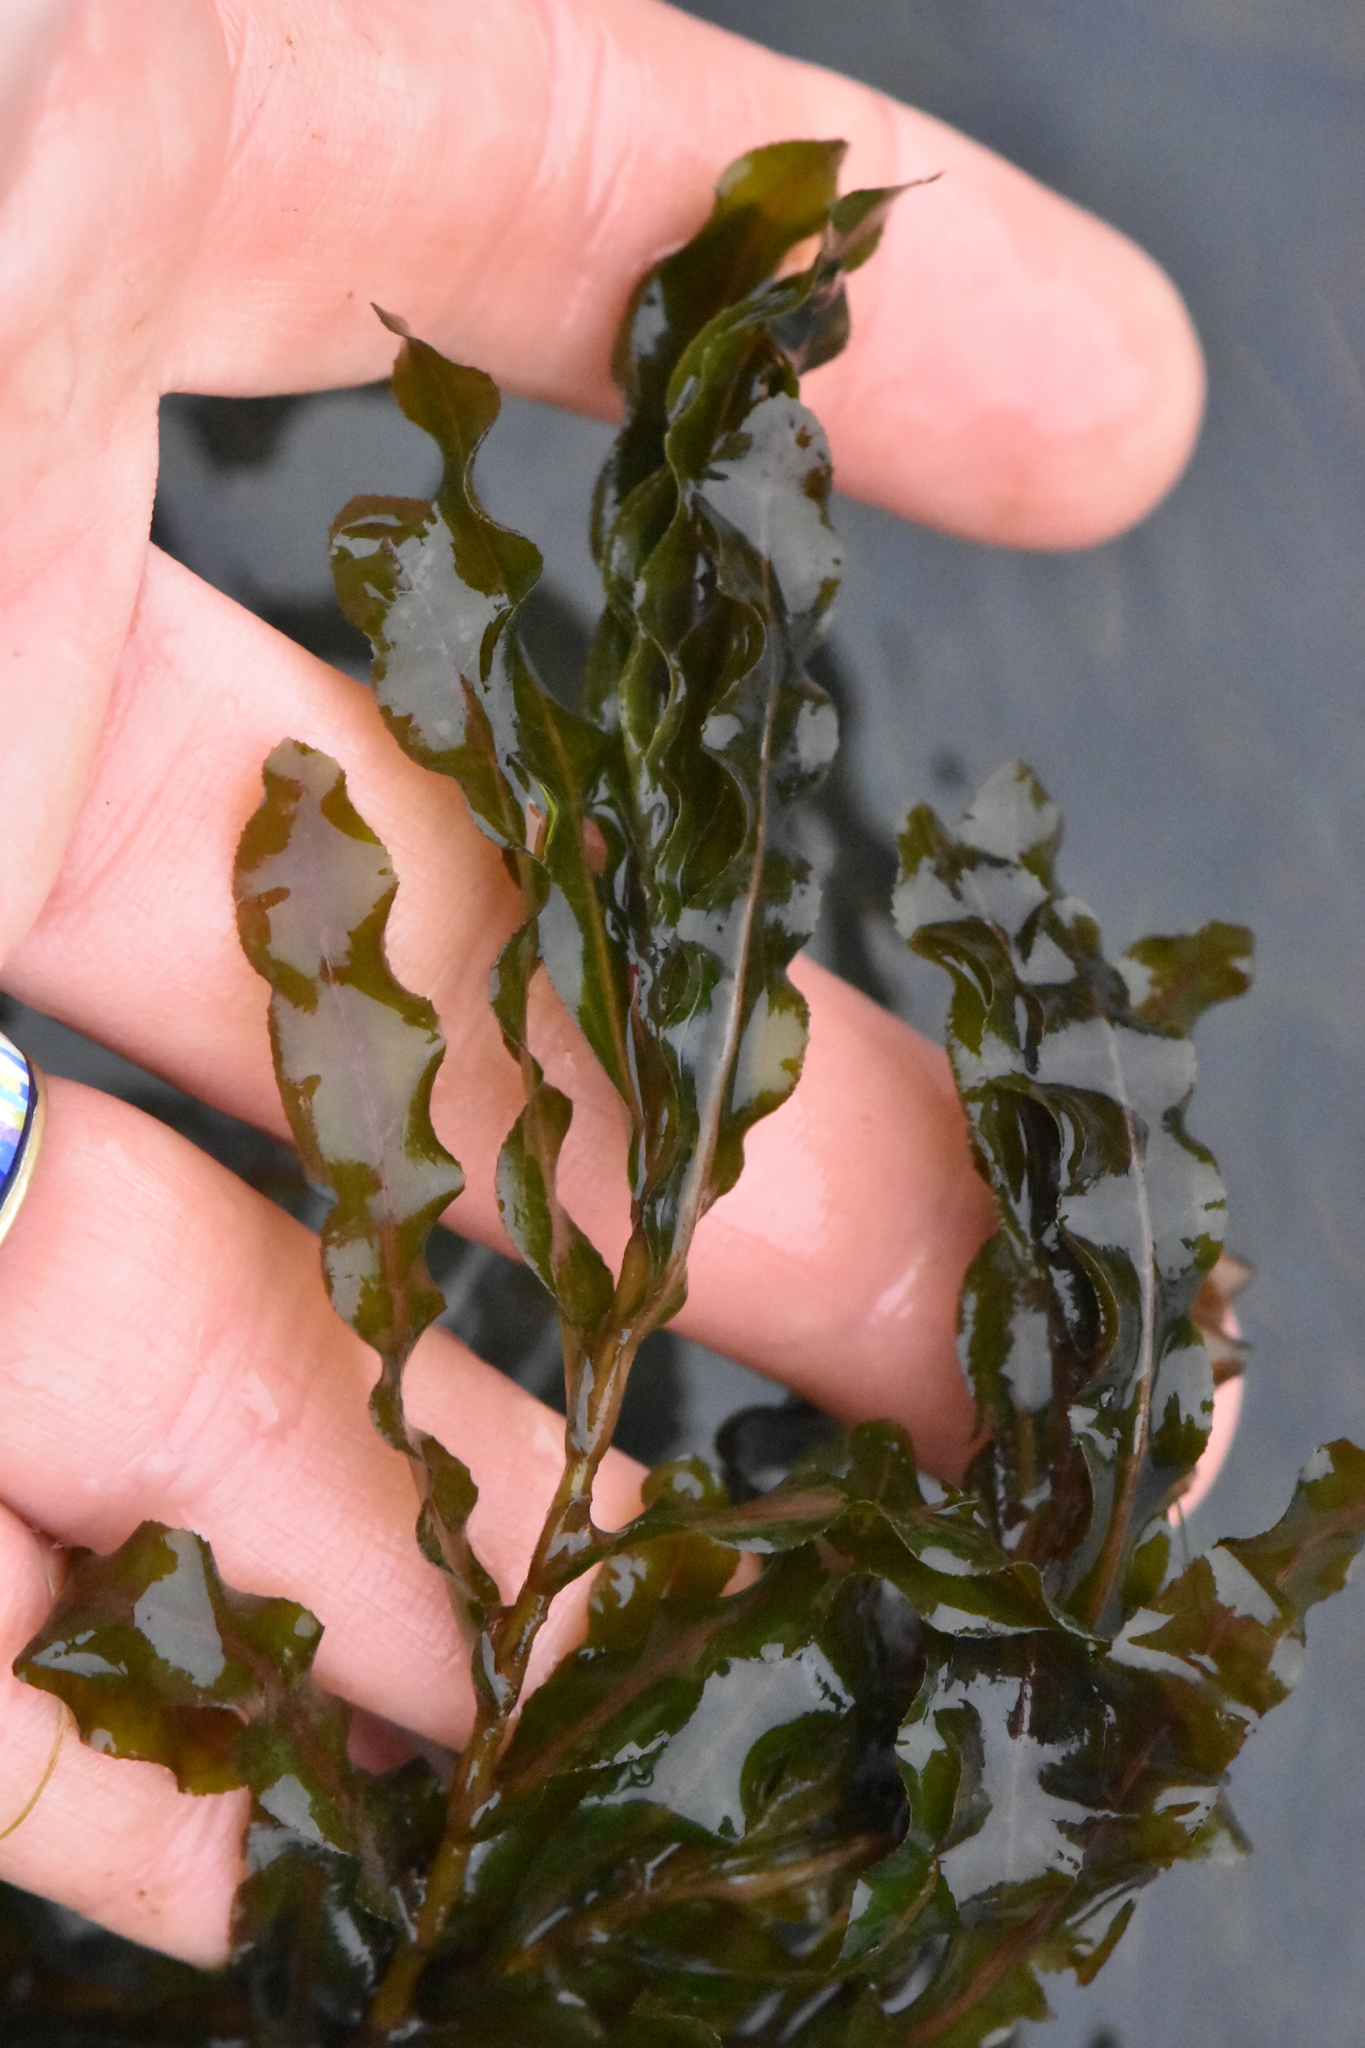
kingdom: Plantae
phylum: Tracheophyta
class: Liliopsida
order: Alismatales
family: Potamogetonaceae
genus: Potamogeton
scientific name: Potamogeton crispus
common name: Curled pondweed
